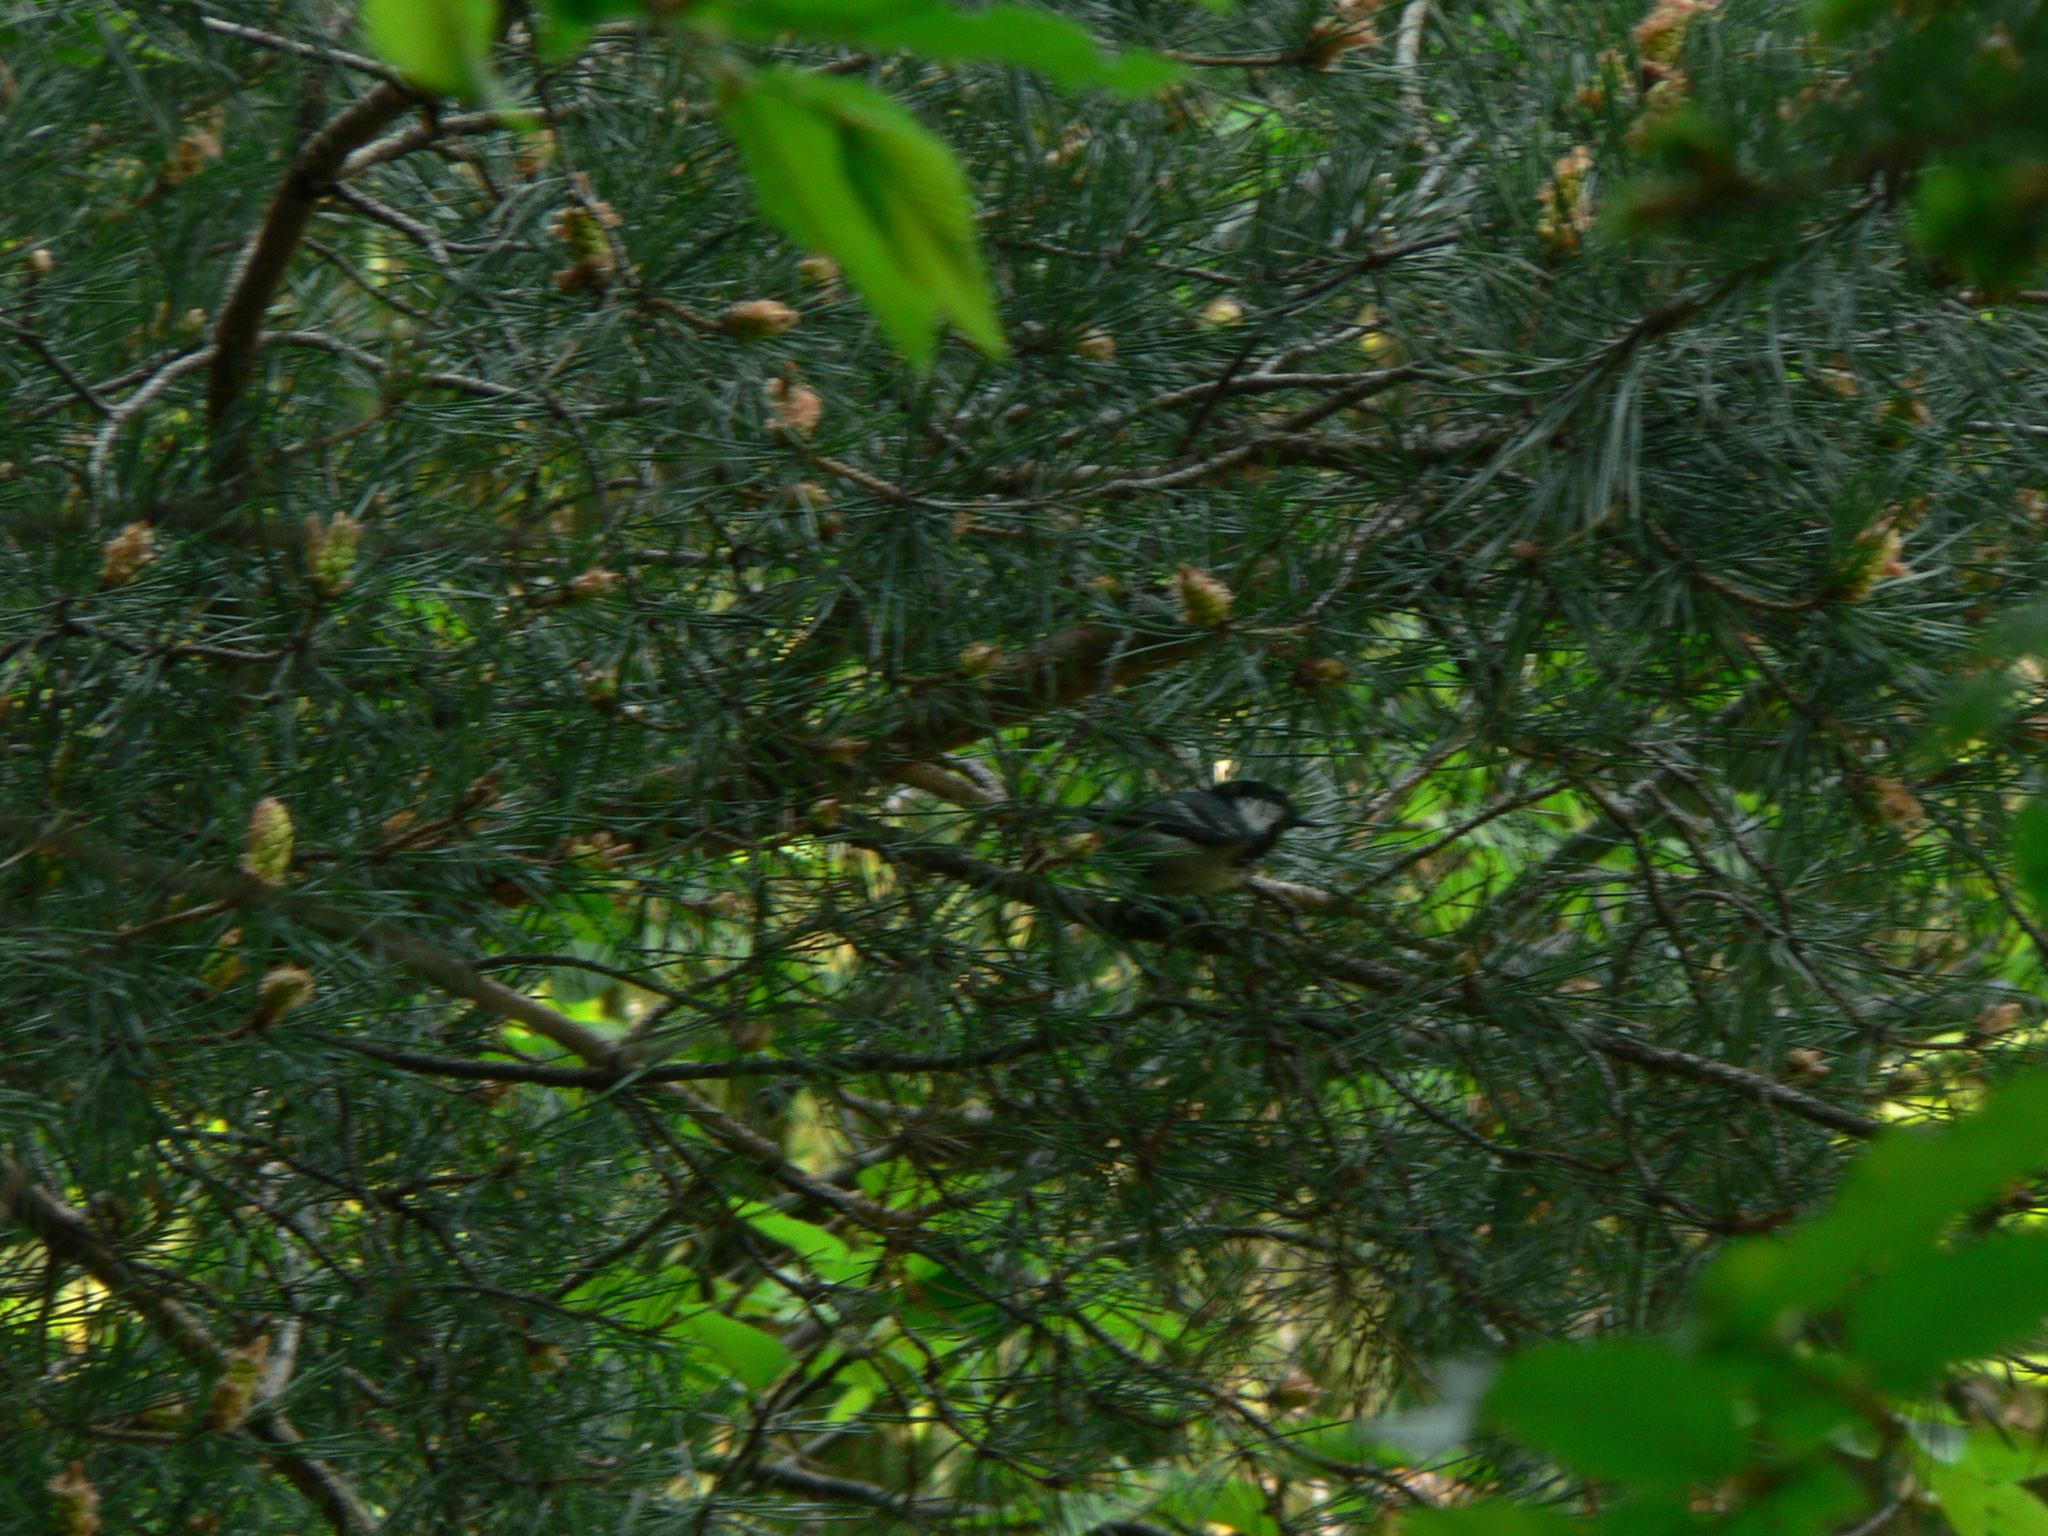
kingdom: Animalia
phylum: Chordata
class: Aves
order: Passeriformes
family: Paridae
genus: Periparus
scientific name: Periparus ater
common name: Coal tit
